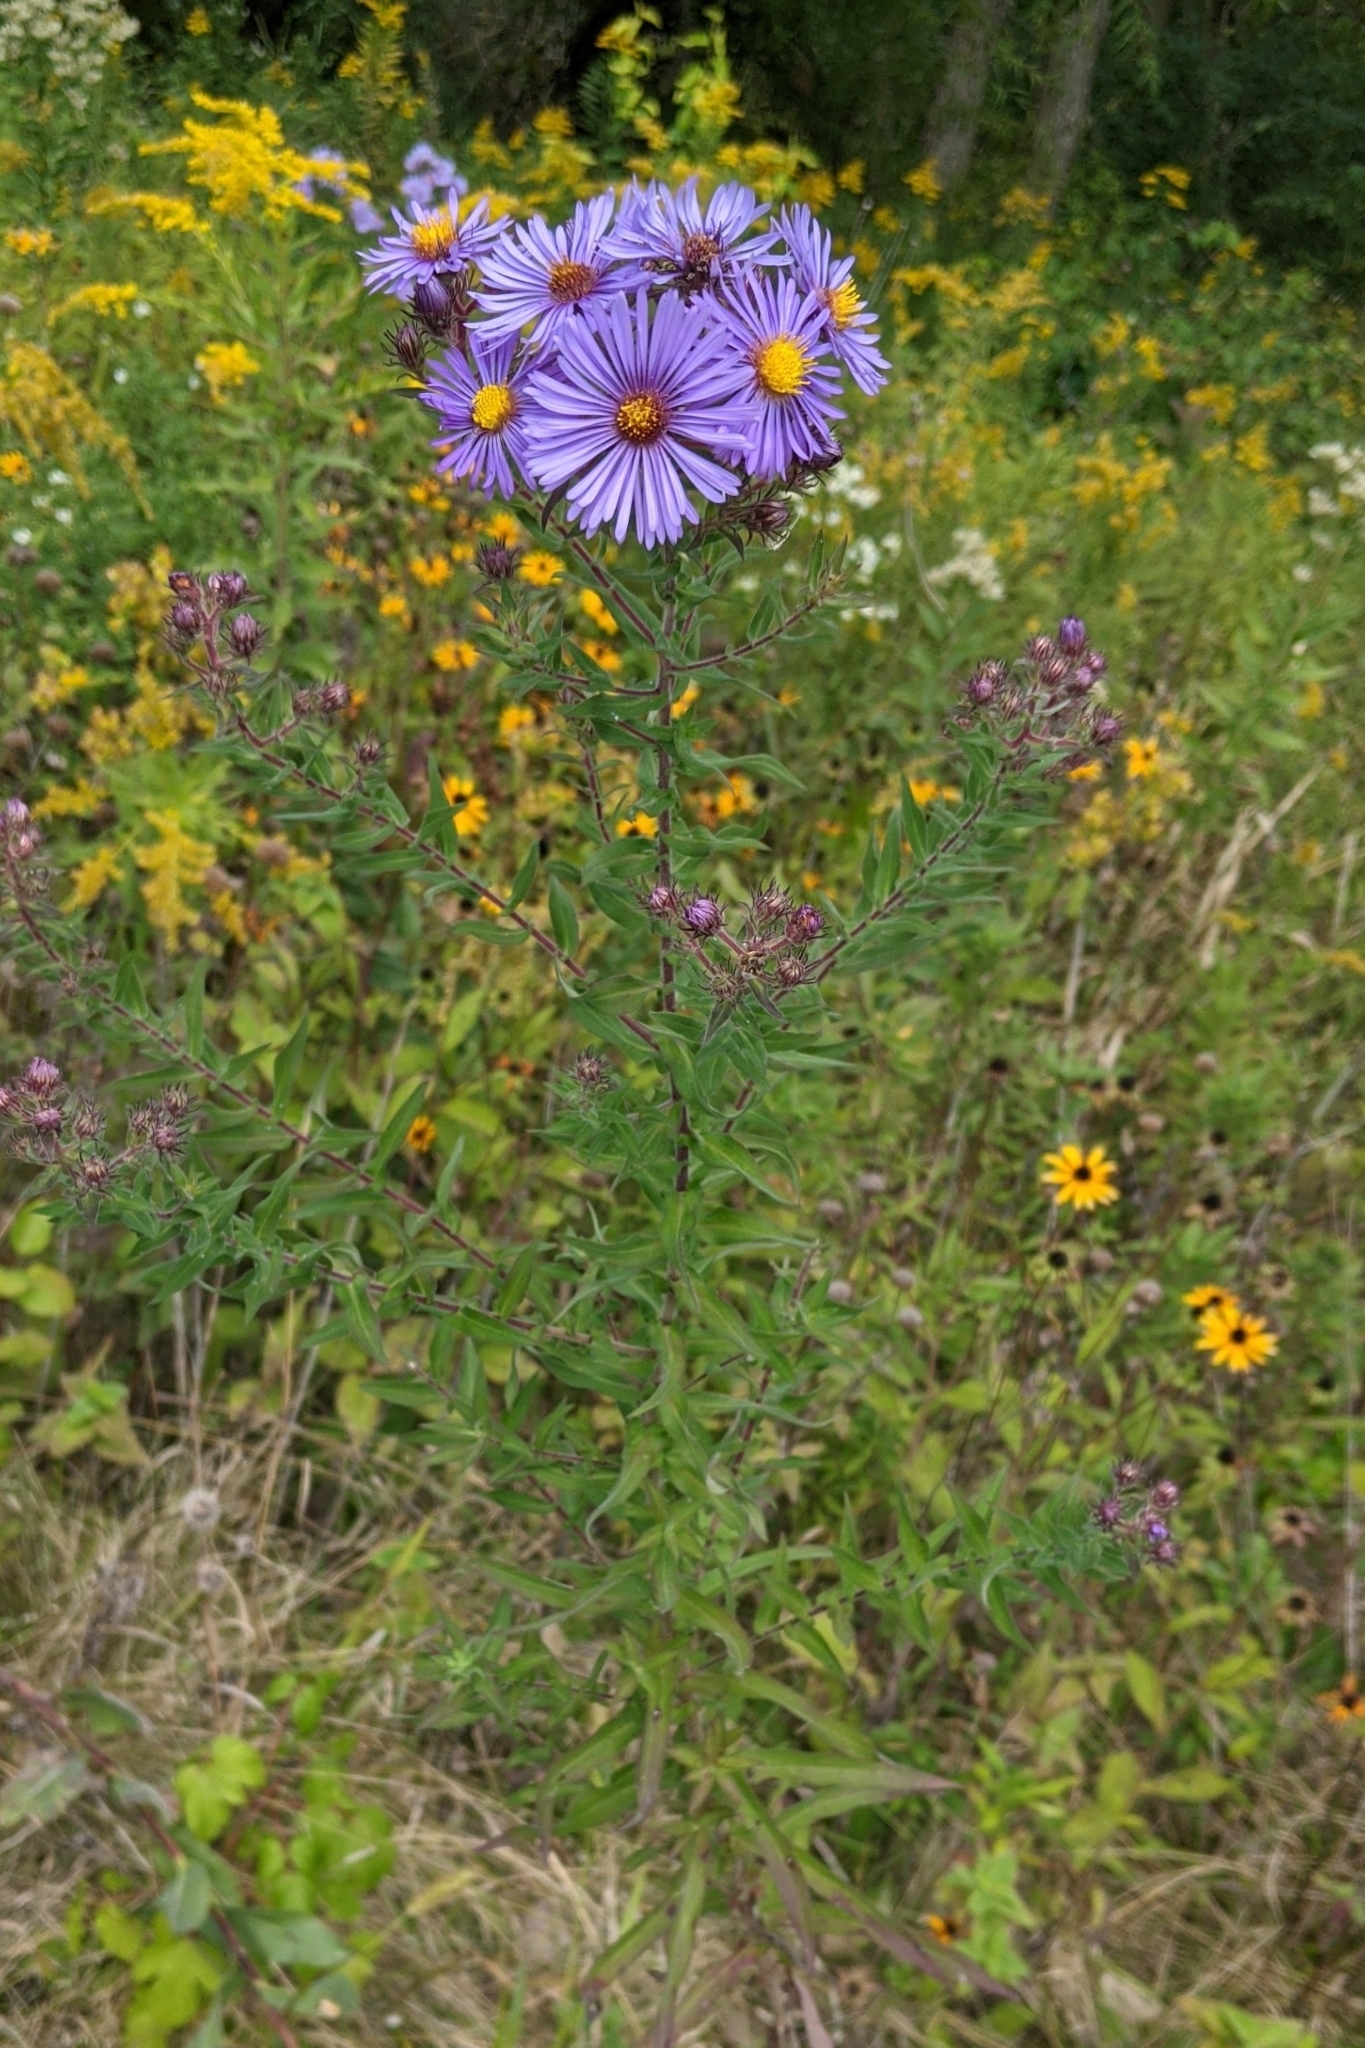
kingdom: Plantae
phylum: Tracheophyta
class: Magnoliopsida
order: Asterales
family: Asteraceae
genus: Symphyotrichum
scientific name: Symphyotrichum novae-angliae
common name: Michaelmas daisy
